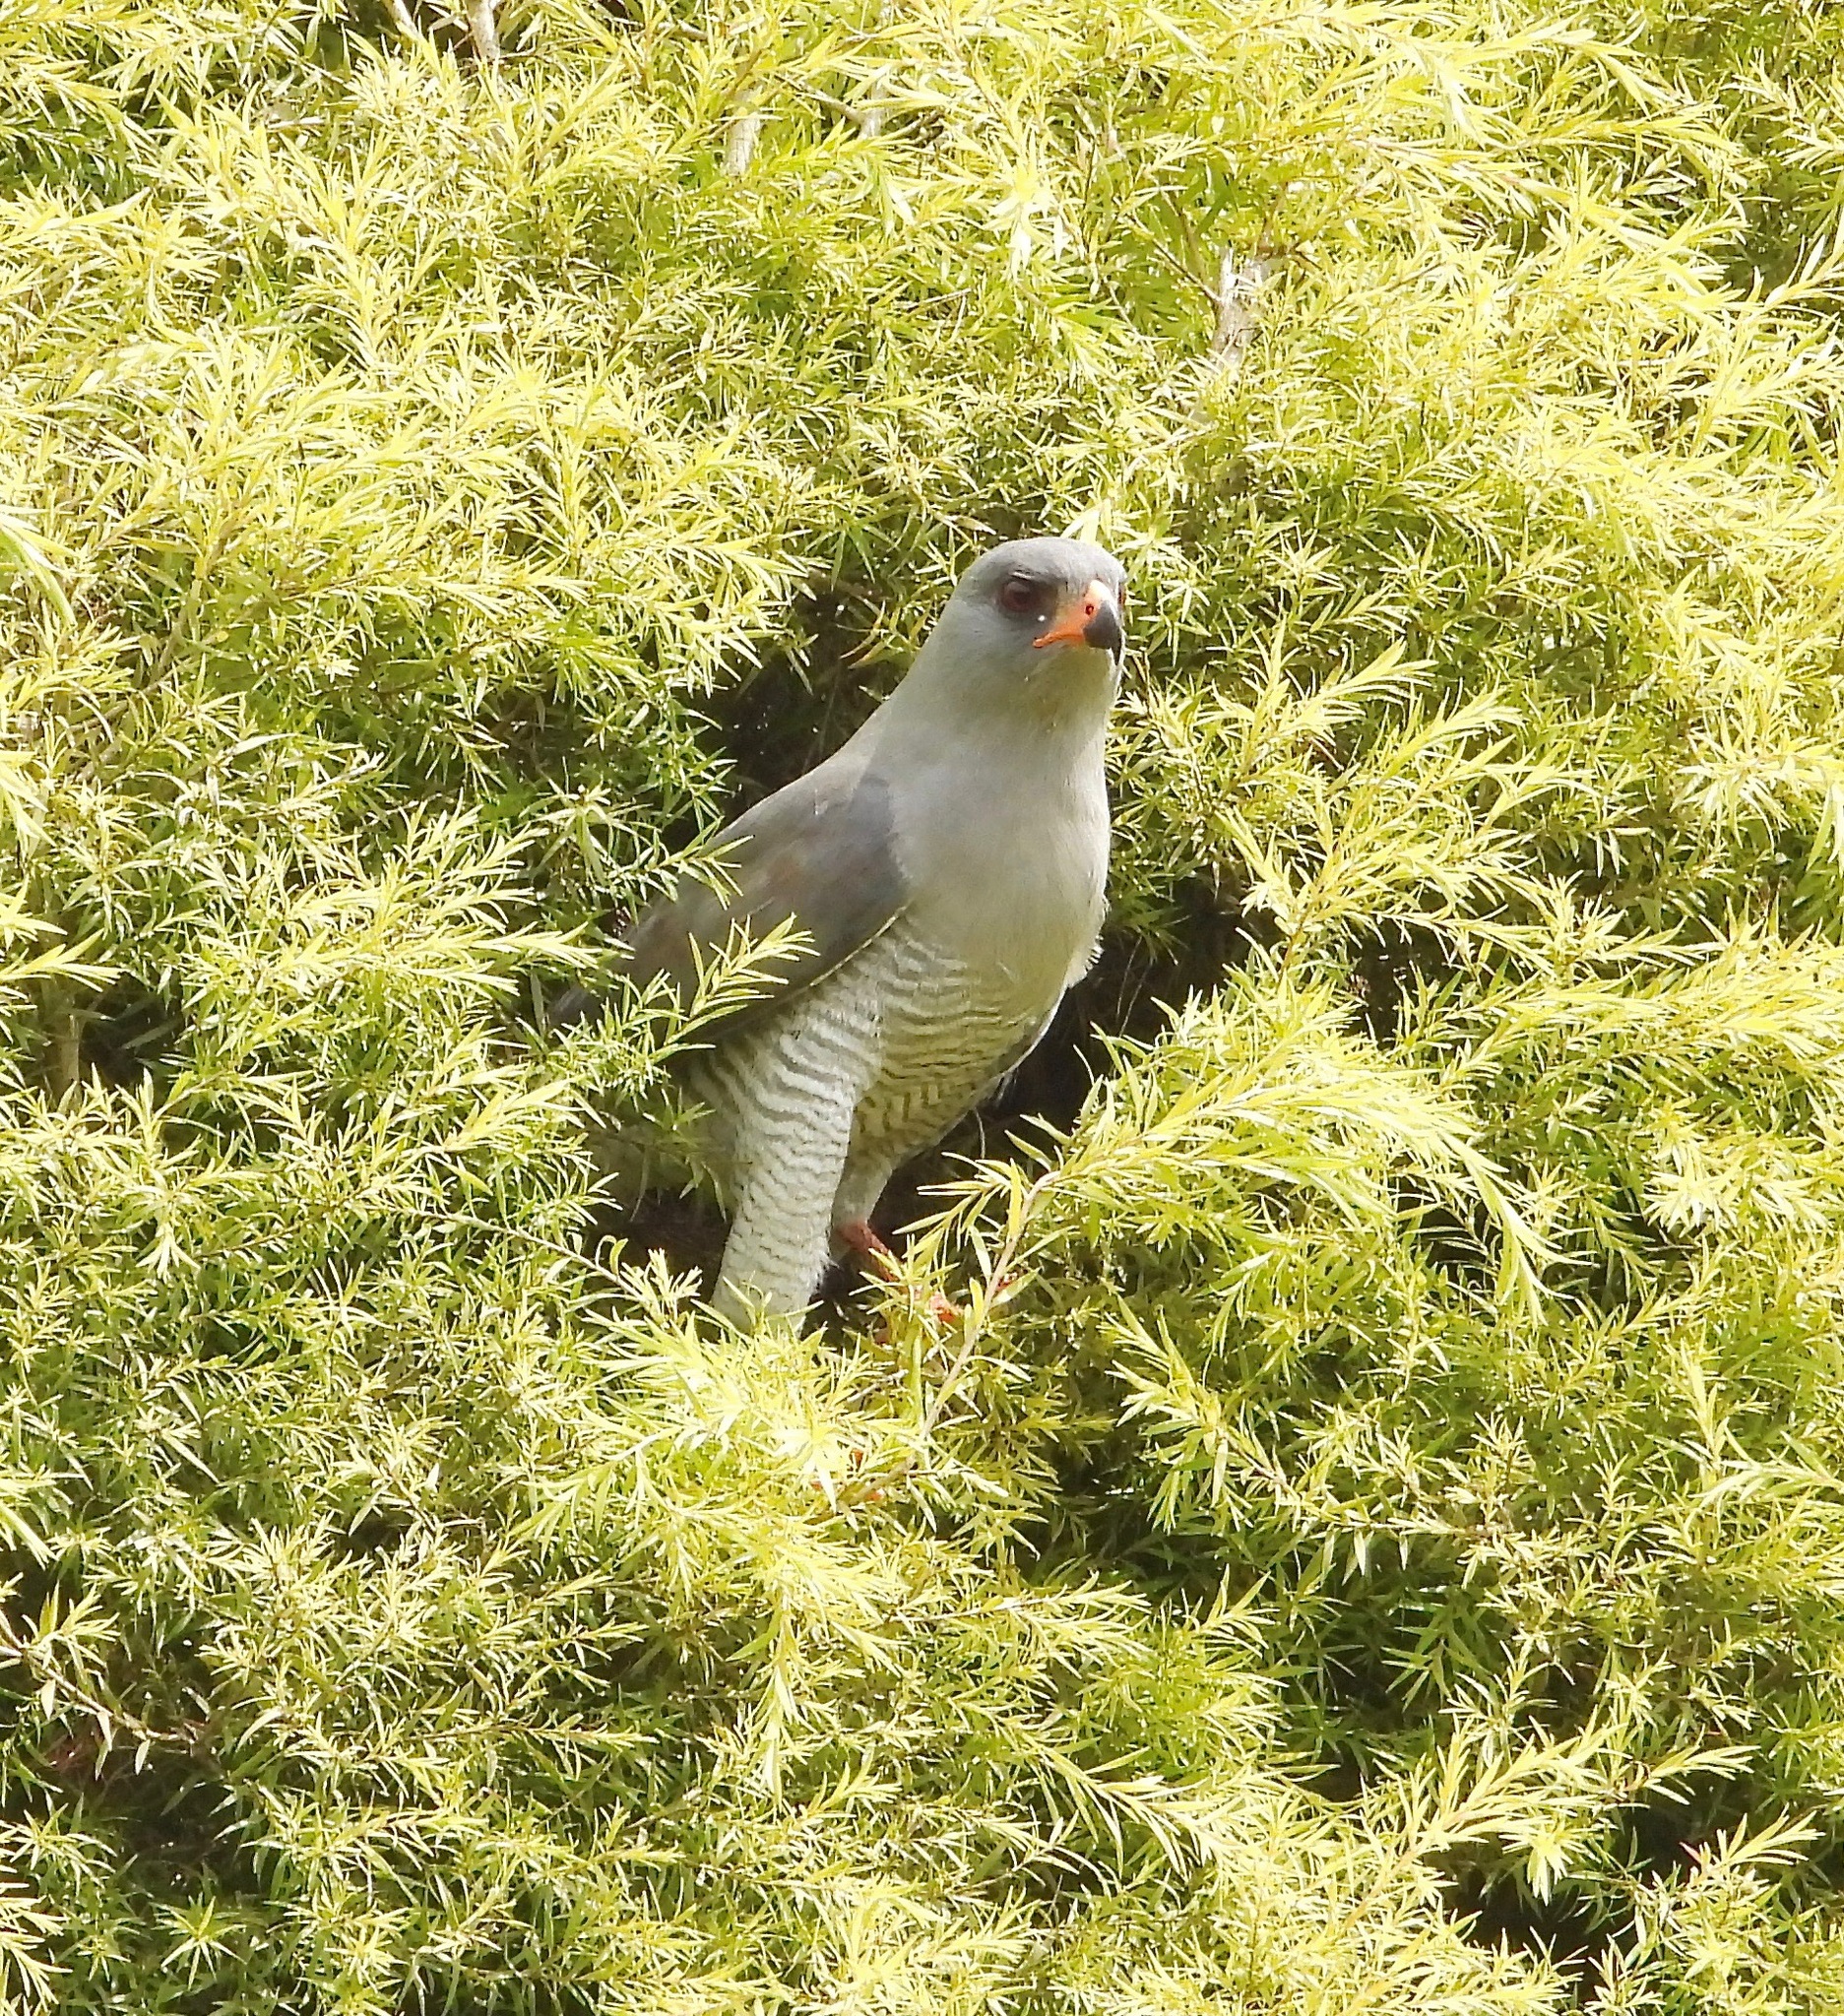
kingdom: Animalia
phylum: Chordata
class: Aves
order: Accipitriformes
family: Accipitridae
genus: Micronisus
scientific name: Micronisus gabar
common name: Gabar goshawk
